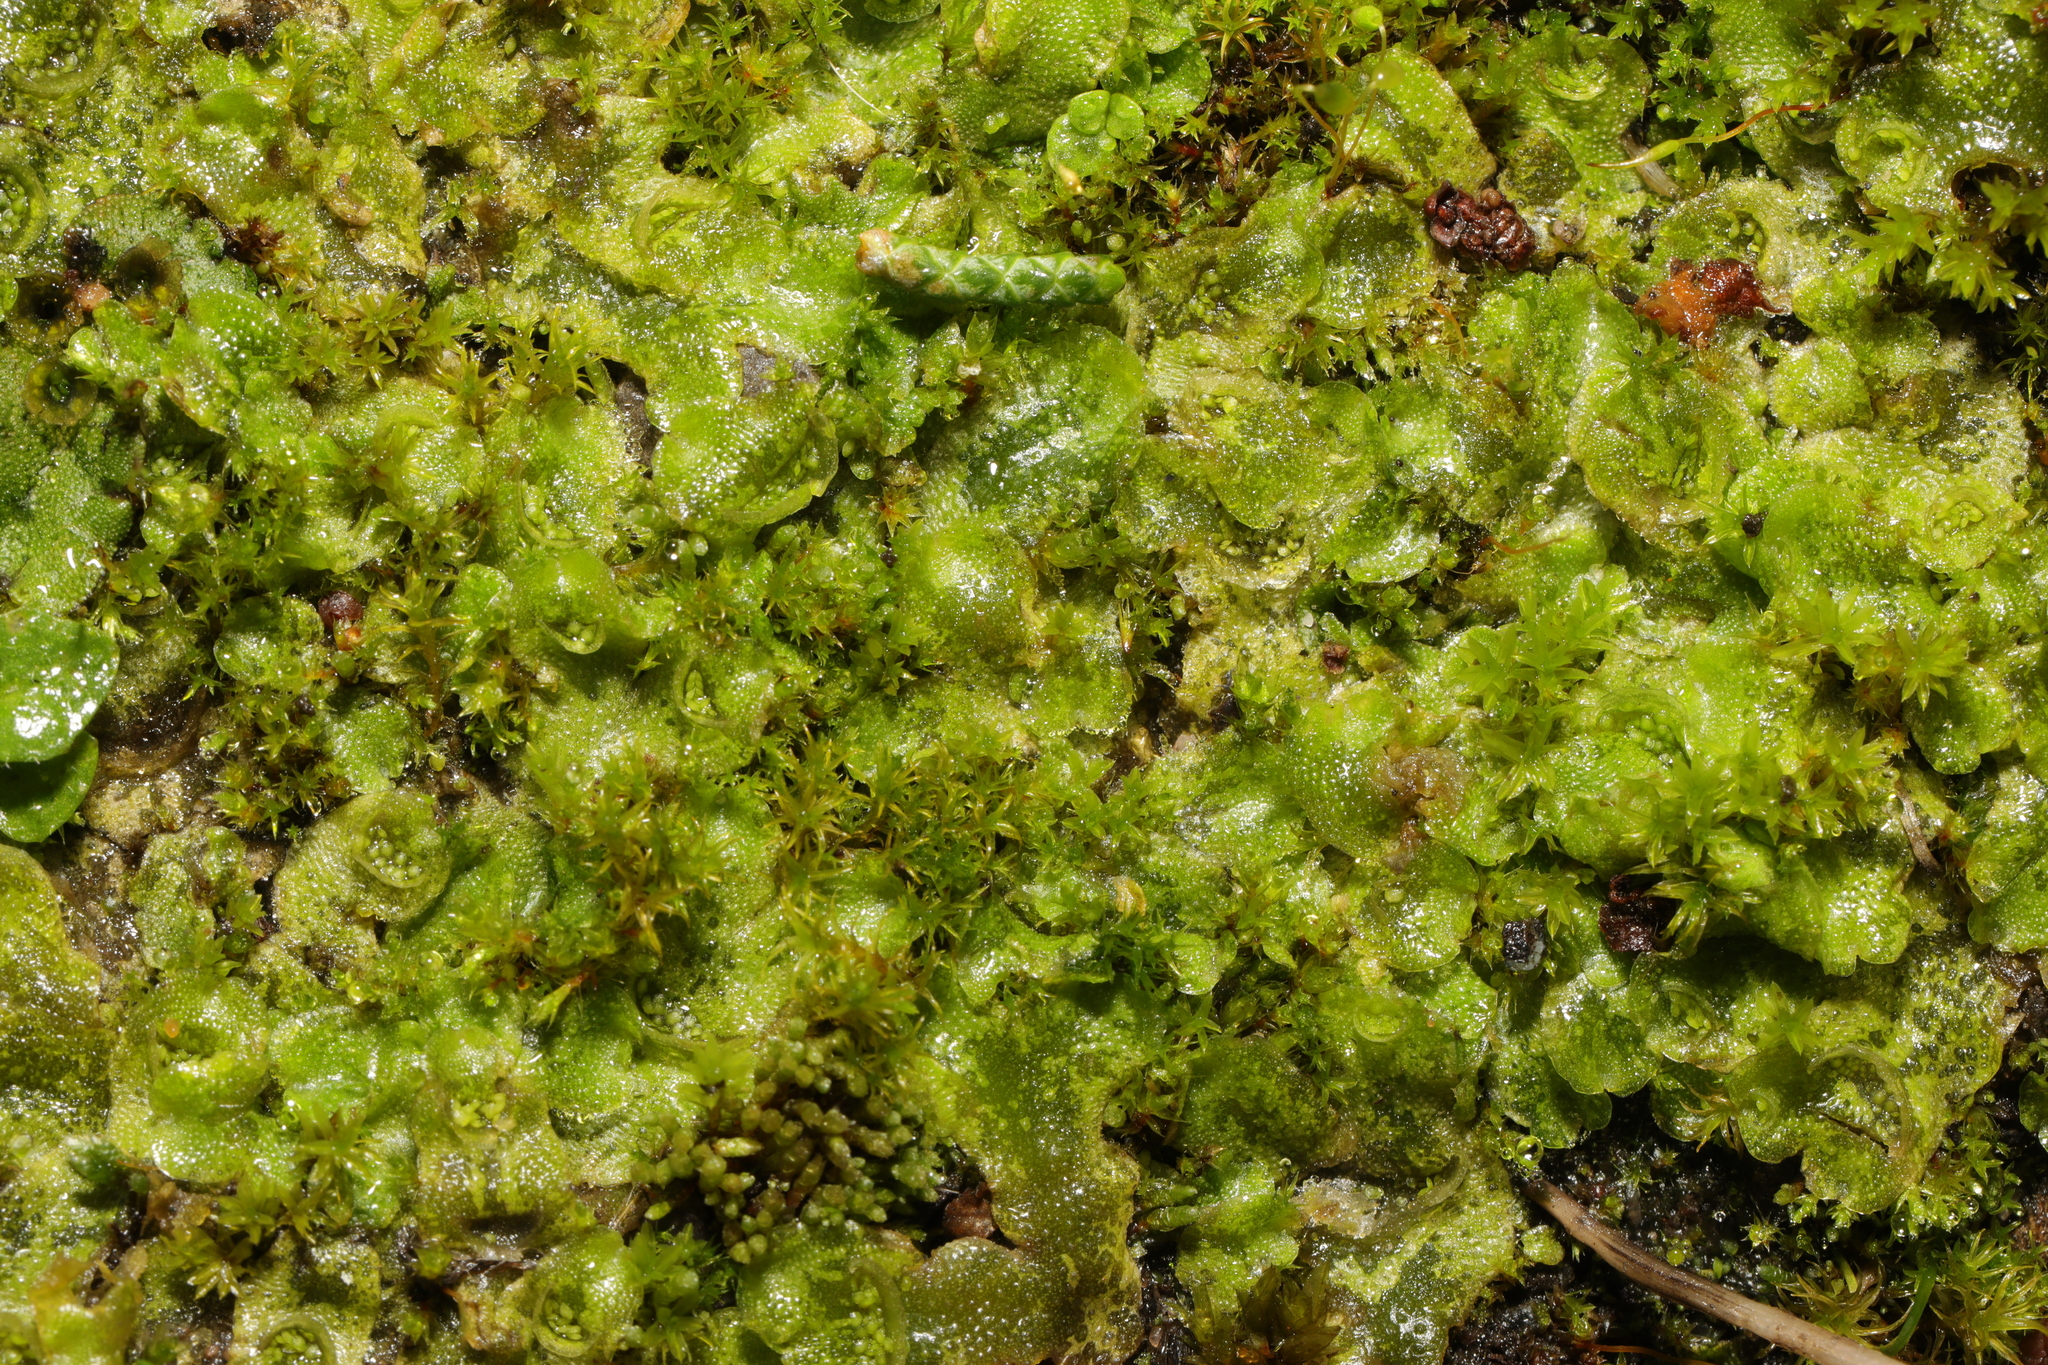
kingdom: Plantae
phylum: Marchantiophyta
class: Marchantiopsida
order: Lunulariales
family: Lunulariaceae
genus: Lunularia
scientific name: Lunularia cruciata
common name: Crescent-cup liverwort
